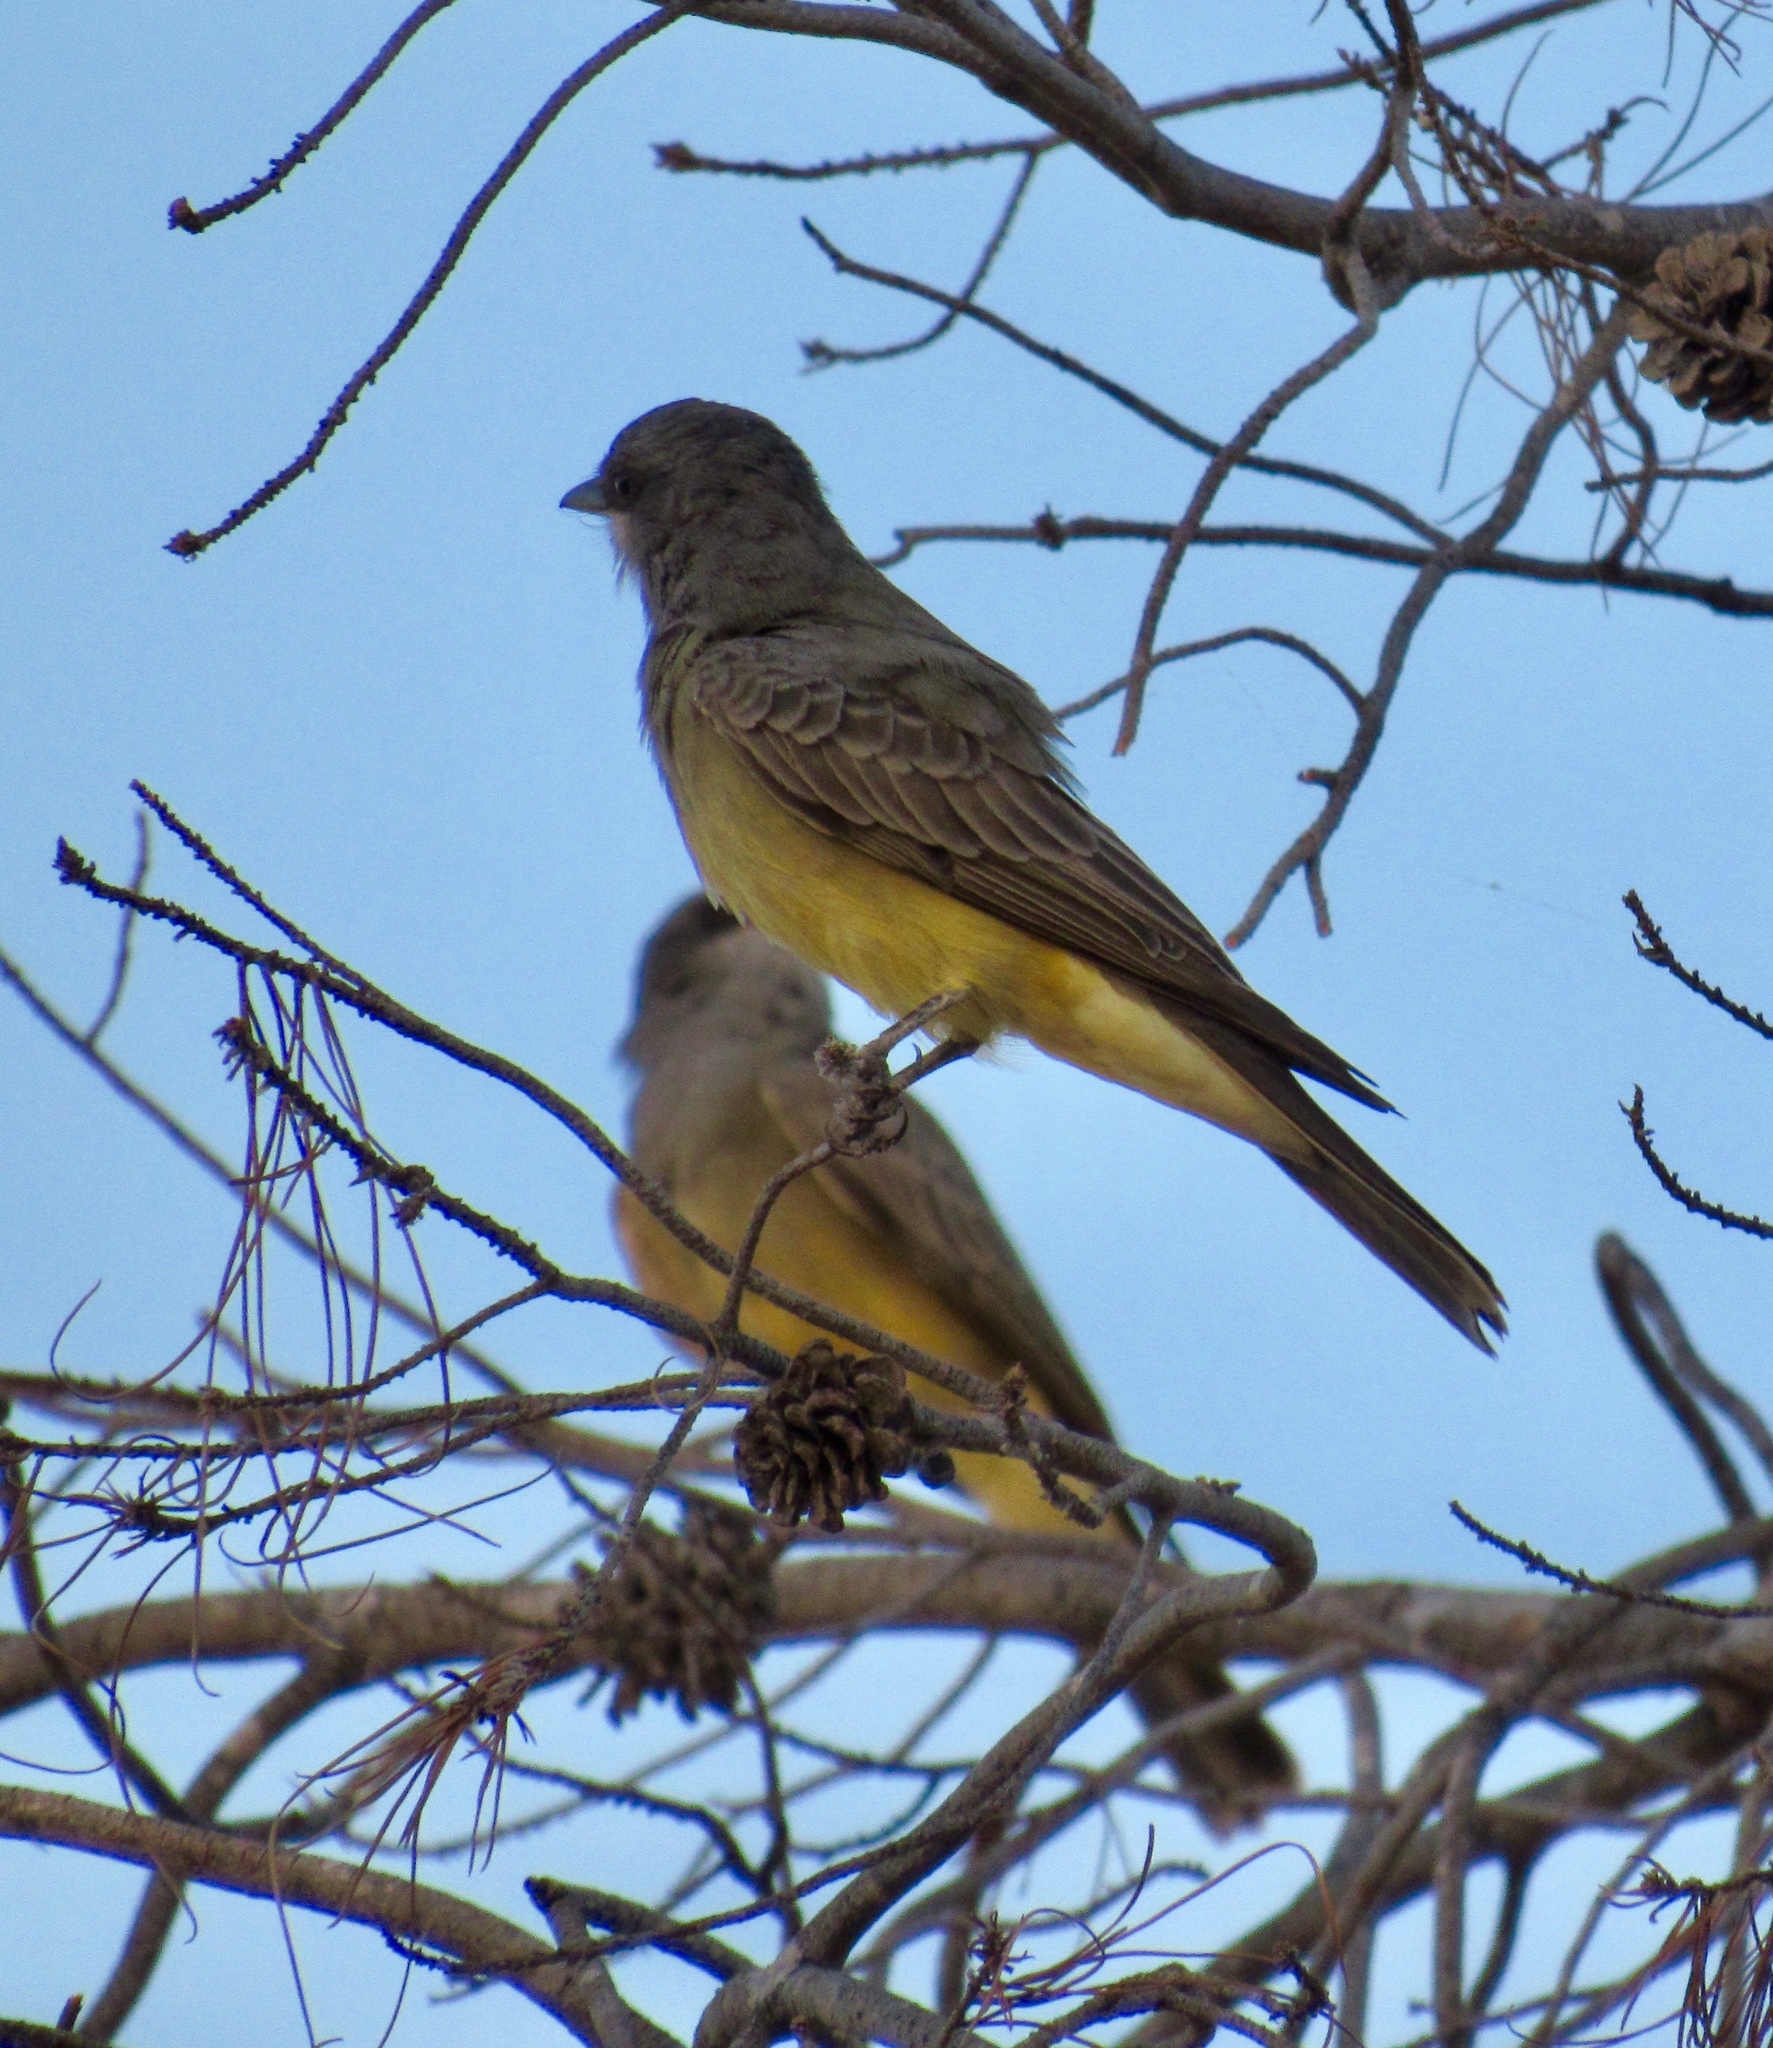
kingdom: Animalia
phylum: Chordata
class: Aves
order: Passeriformes
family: Tyrannidae
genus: Tyrannus
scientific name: Tyrannus vociferans
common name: Cassin's kingbird
